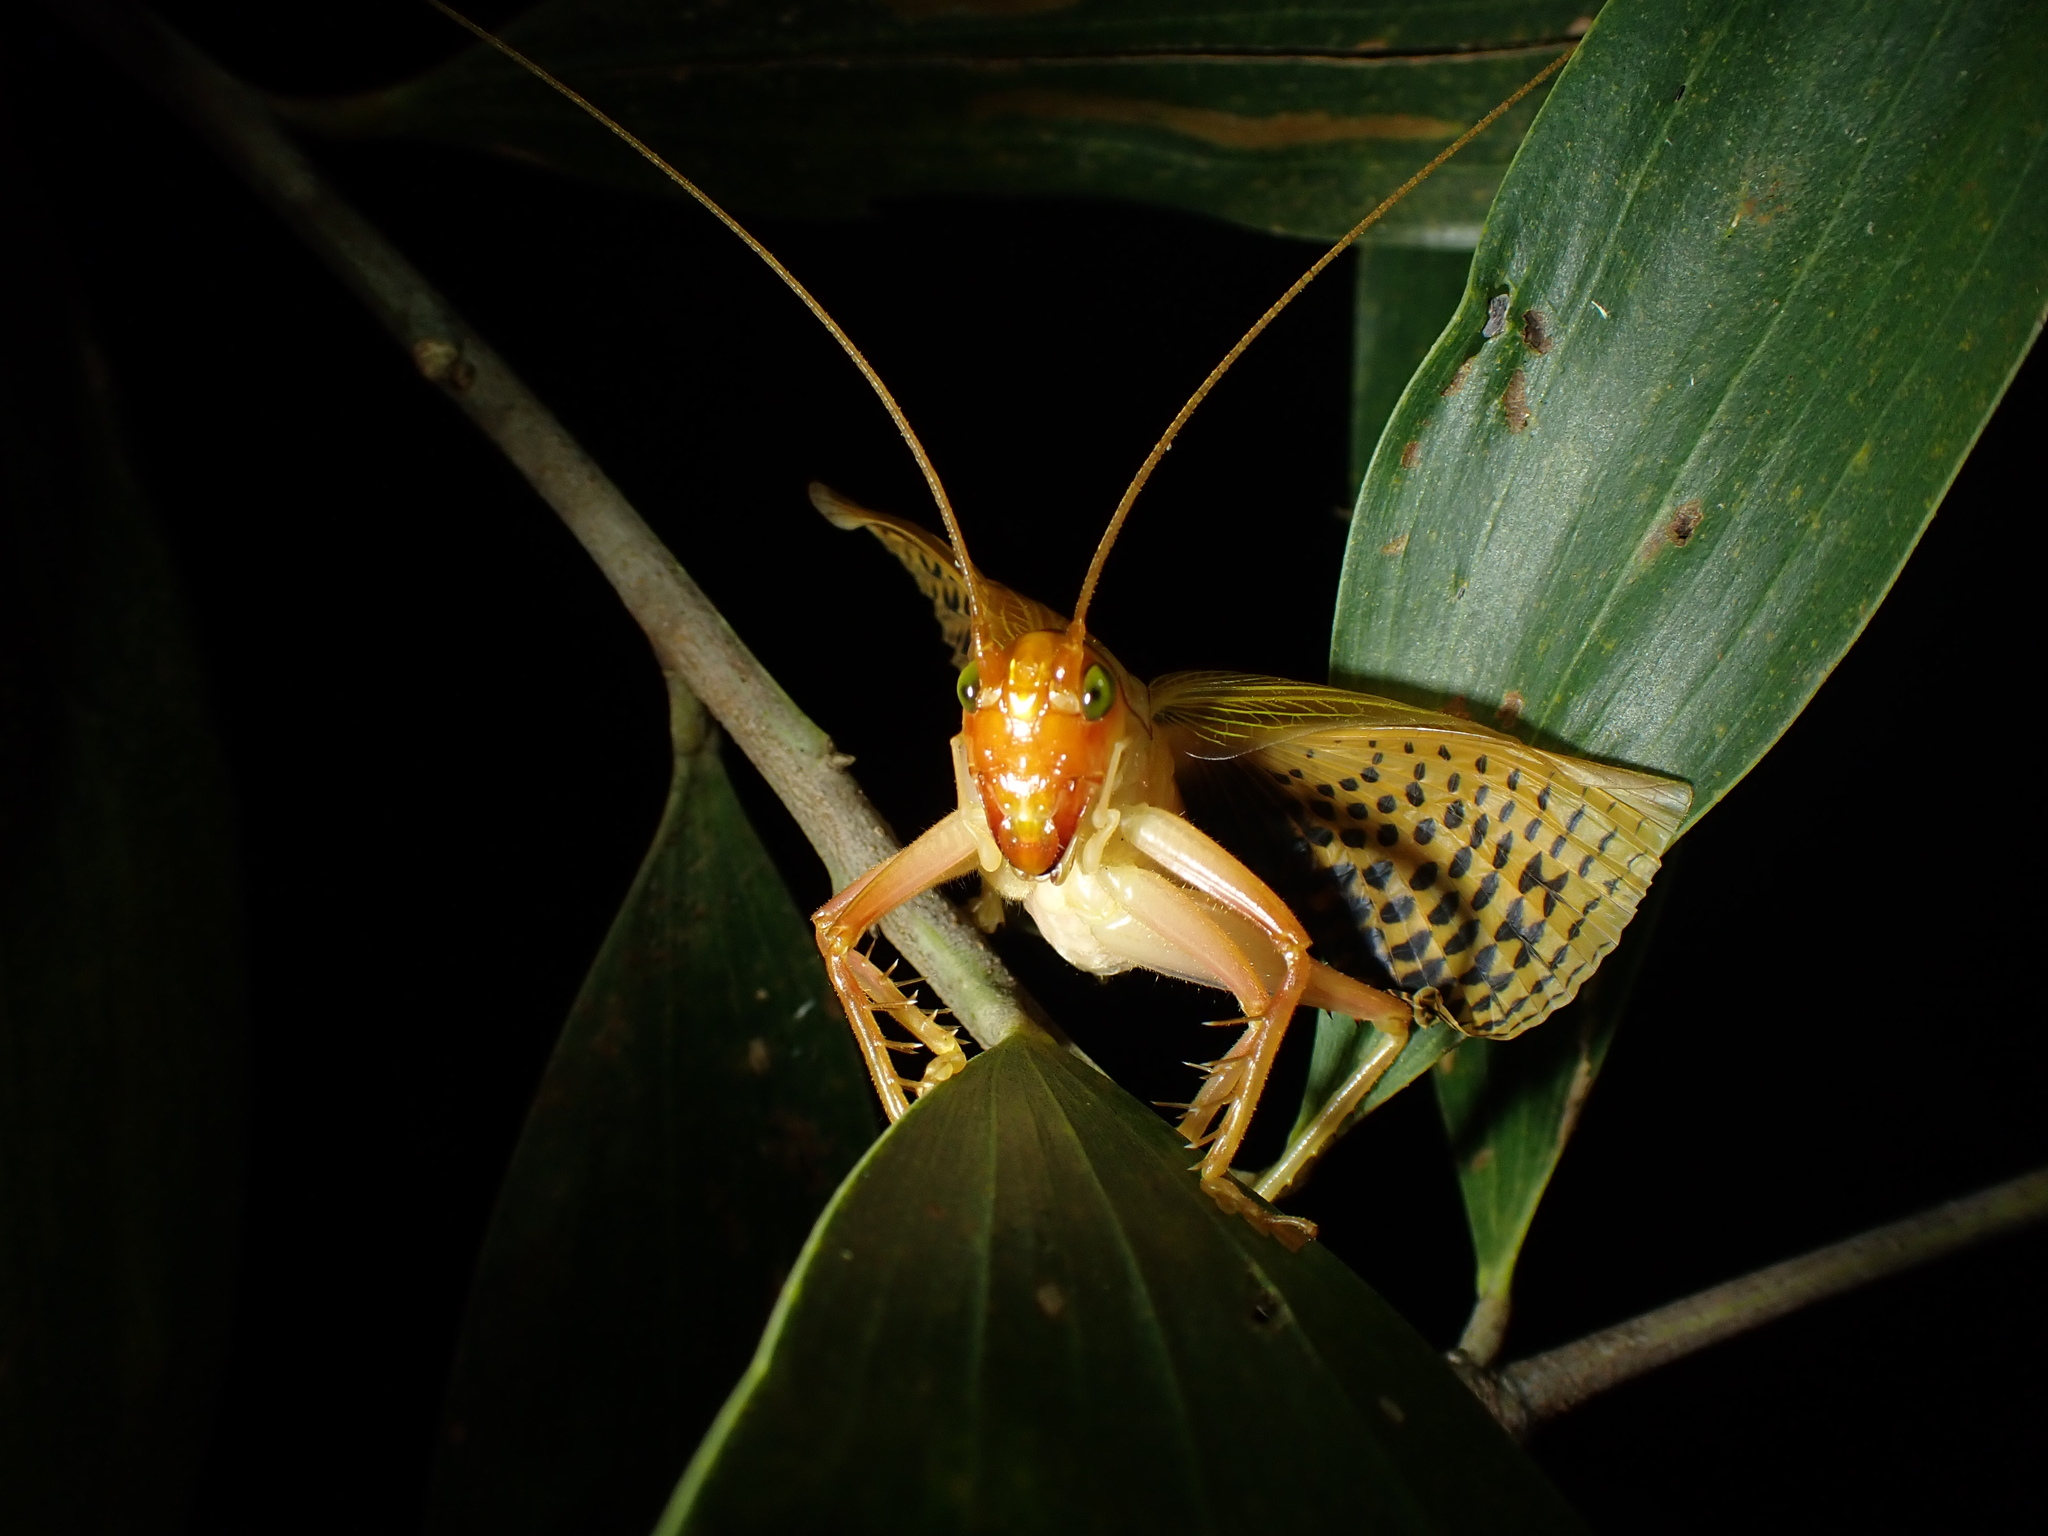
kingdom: Animalia
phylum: Arthropoda
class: Insecta
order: Orthoptera
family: Gryllacrididae
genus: Xanthogryllacris
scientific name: Xanthogryllacris punctipennis
